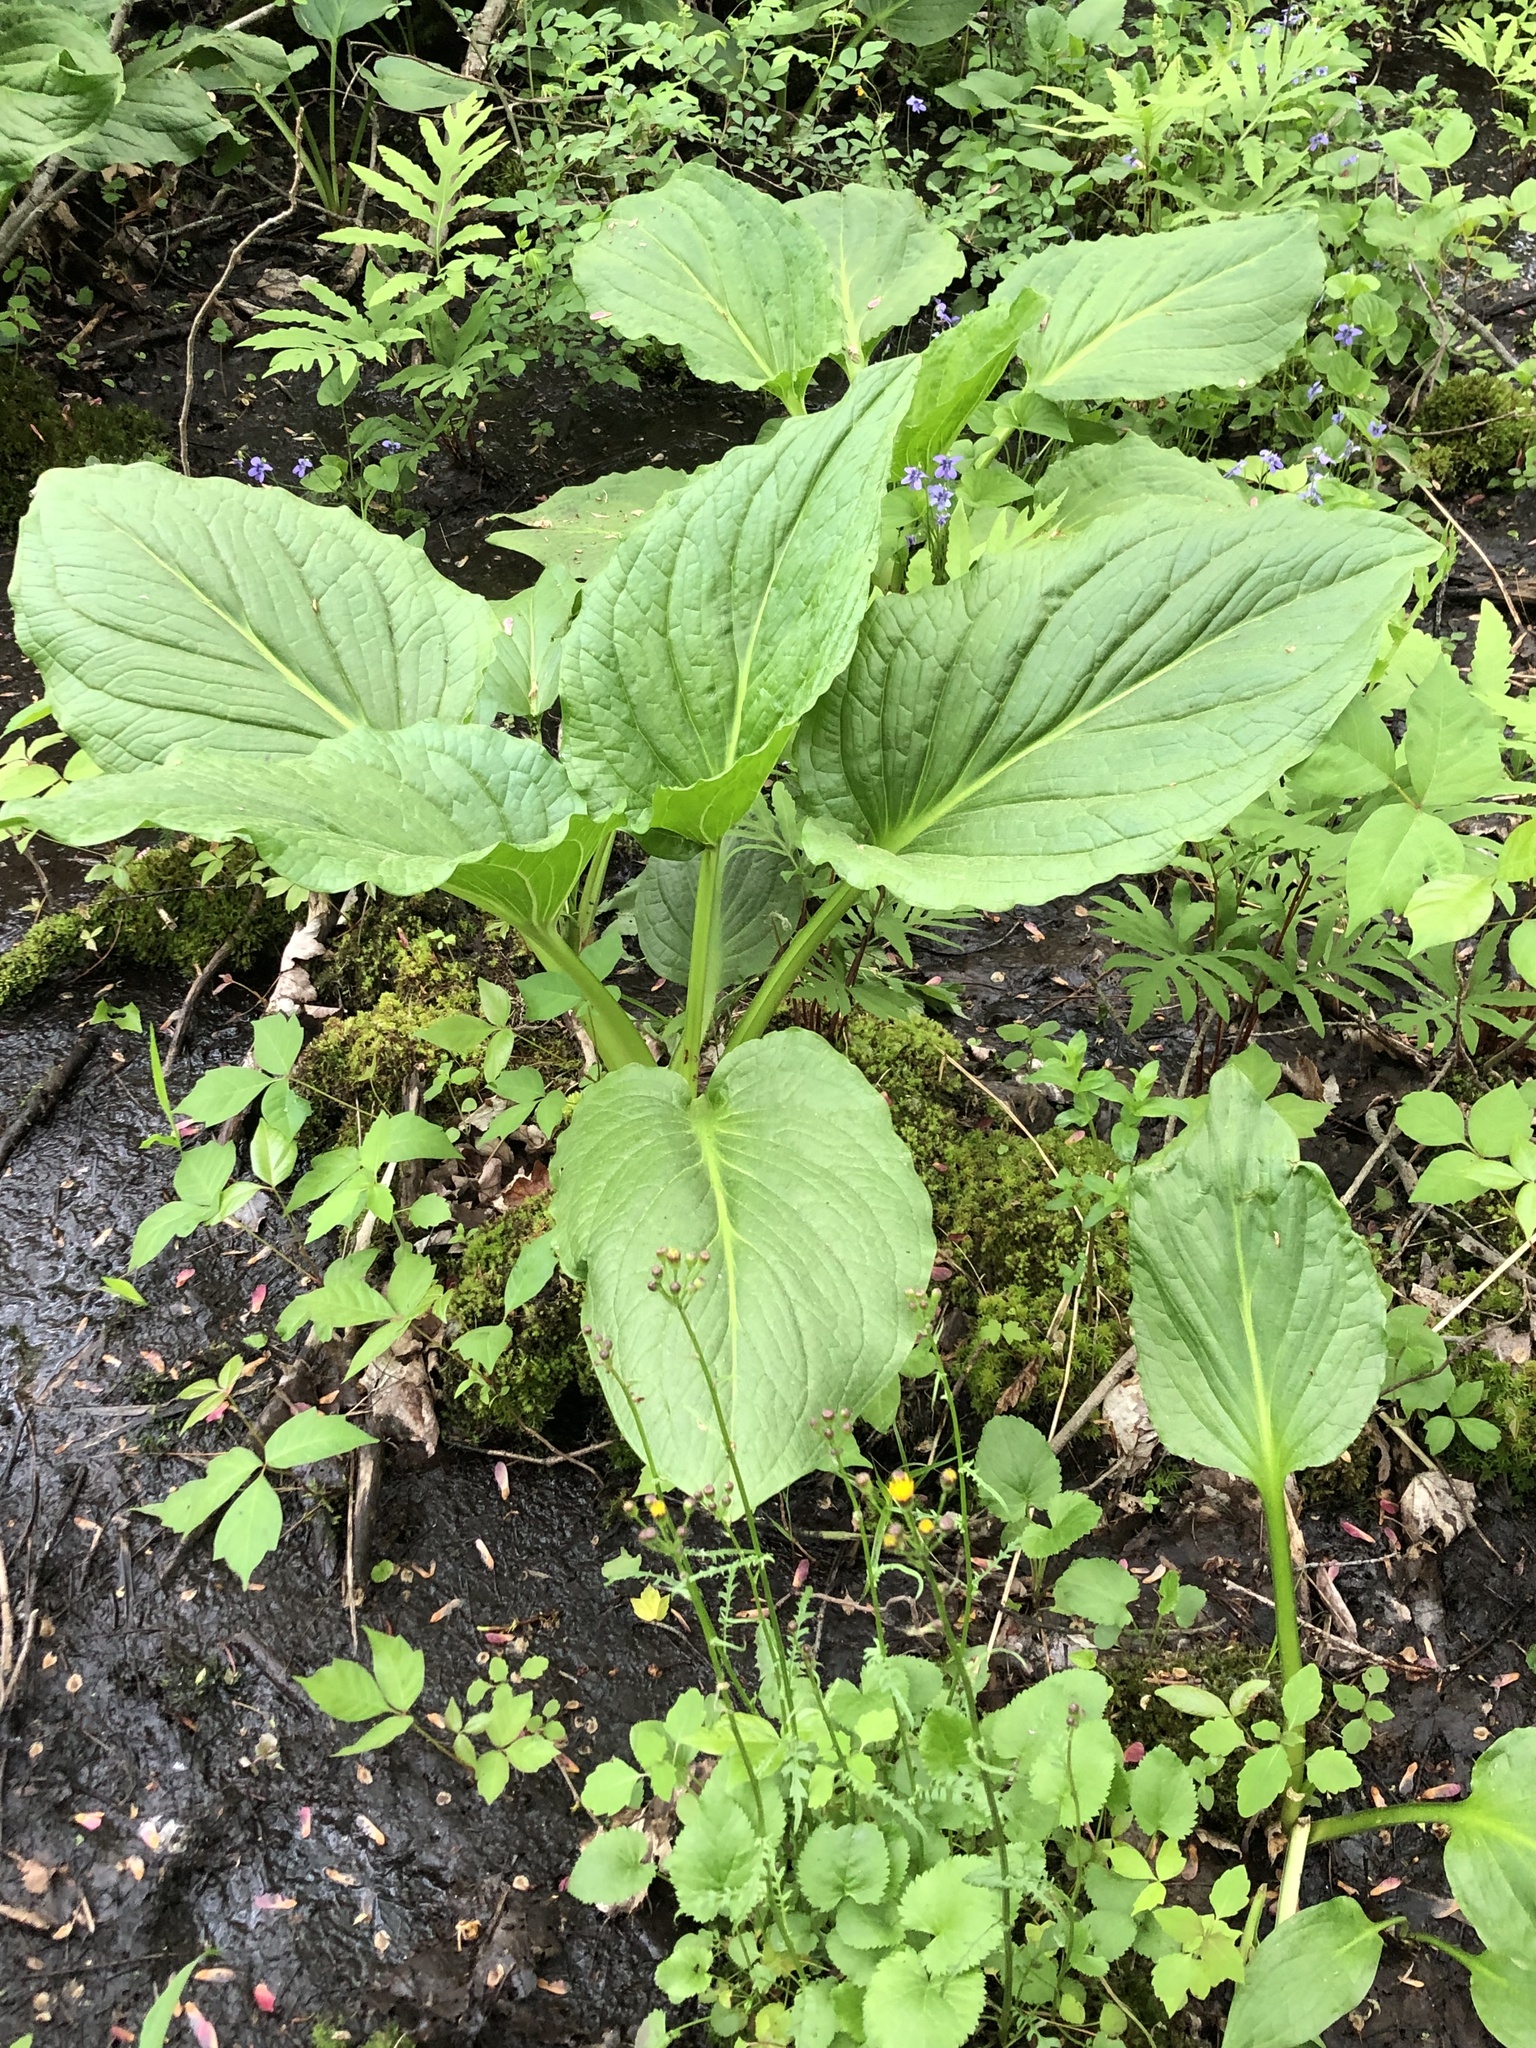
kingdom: Plantae
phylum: Tracheophyta
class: Liliopsida
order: Alismatales
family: Araceae
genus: Symplocarpus
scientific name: Symplocarpus foetidus
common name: Eastern skunk cabbage
